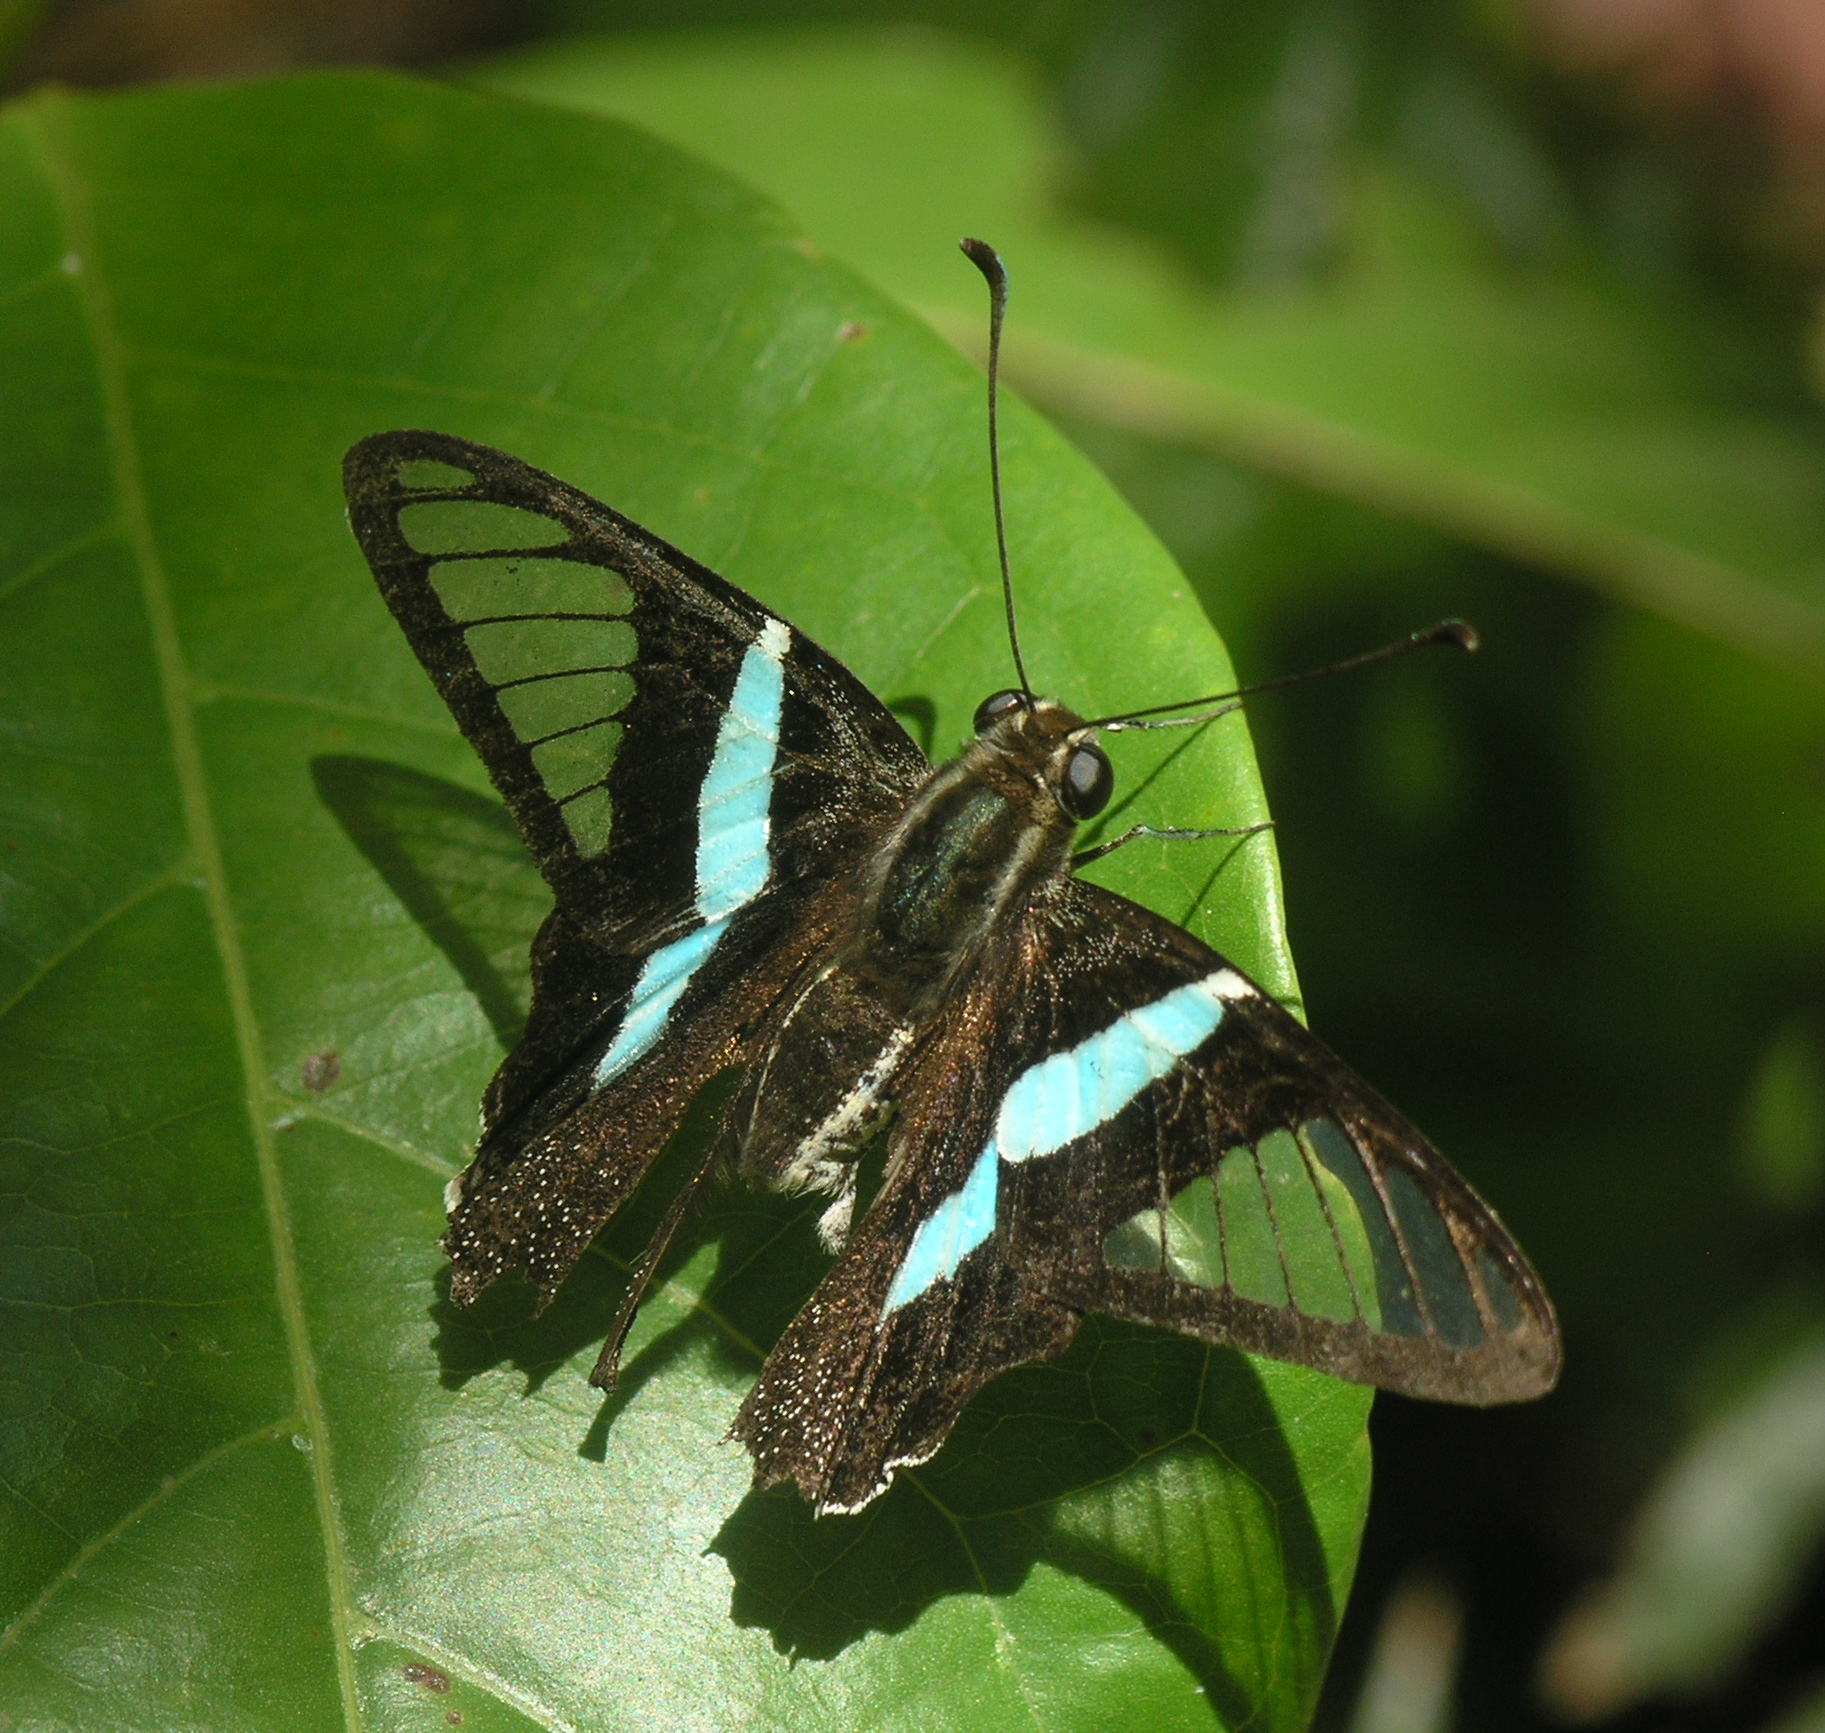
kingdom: Animalia
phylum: Arthropoda
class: Insecta
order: Lepidoptera
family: Papilionidae
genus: Lamproptera
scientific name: Lamproptera meges
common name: Green dragontail
